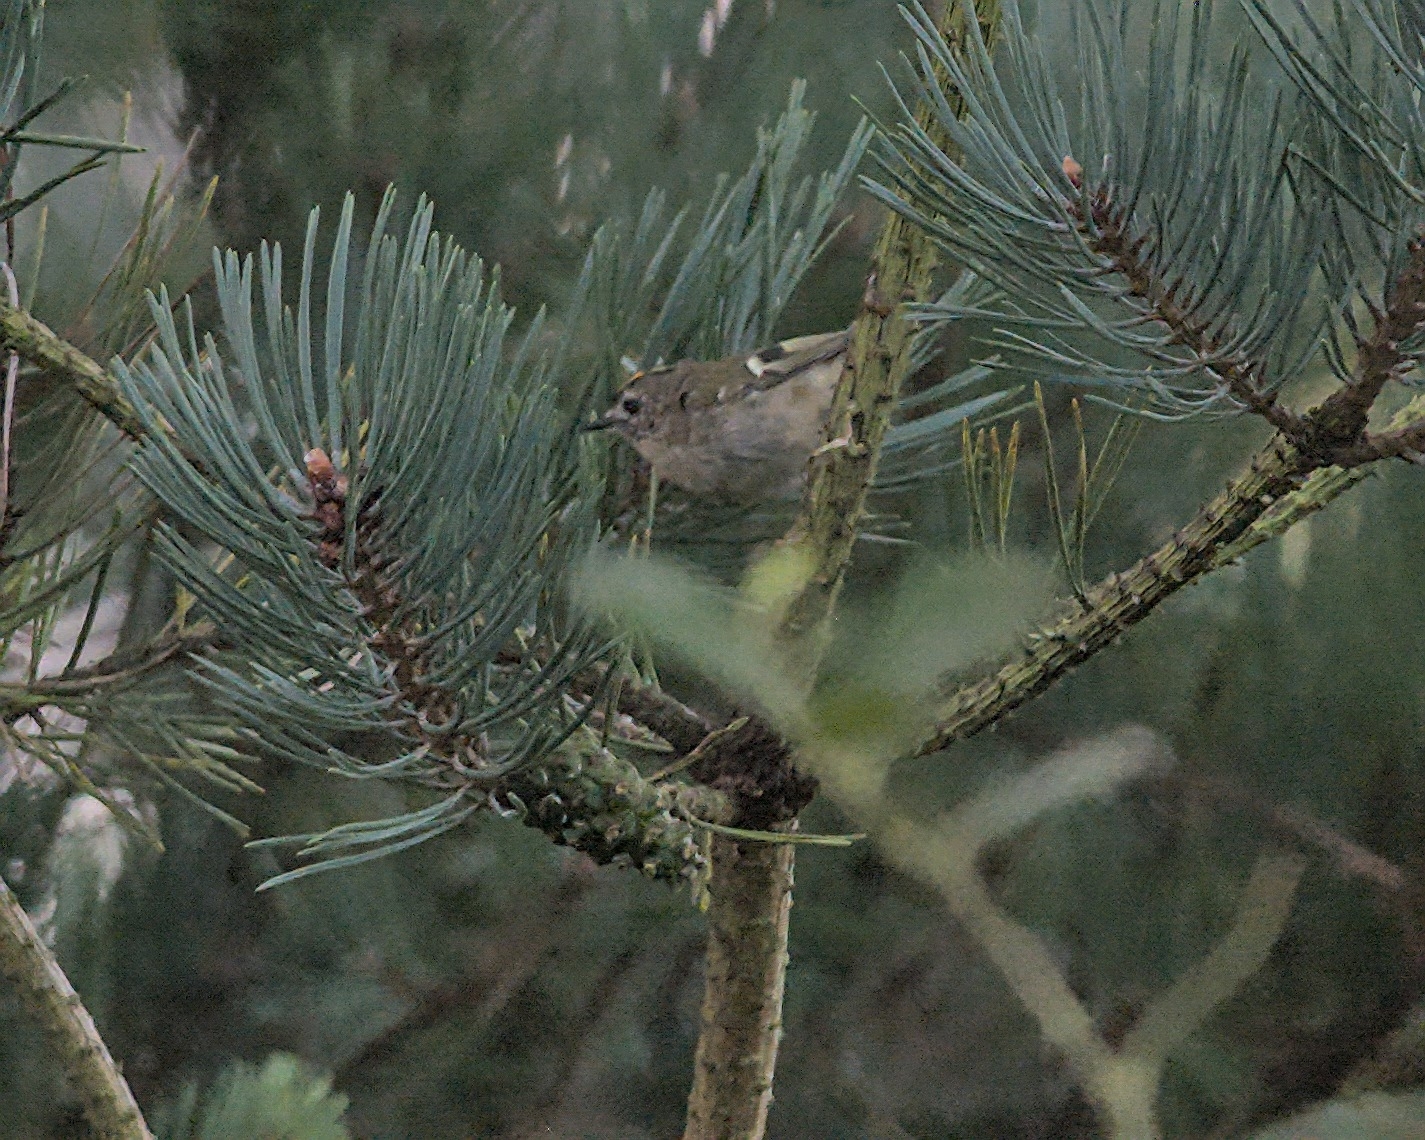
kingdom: Animalia
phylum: Chordata
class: Aves
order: Passeriformes
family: Regulidae
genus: Regulus
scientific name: Regulus regulus
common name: Goldcrest
